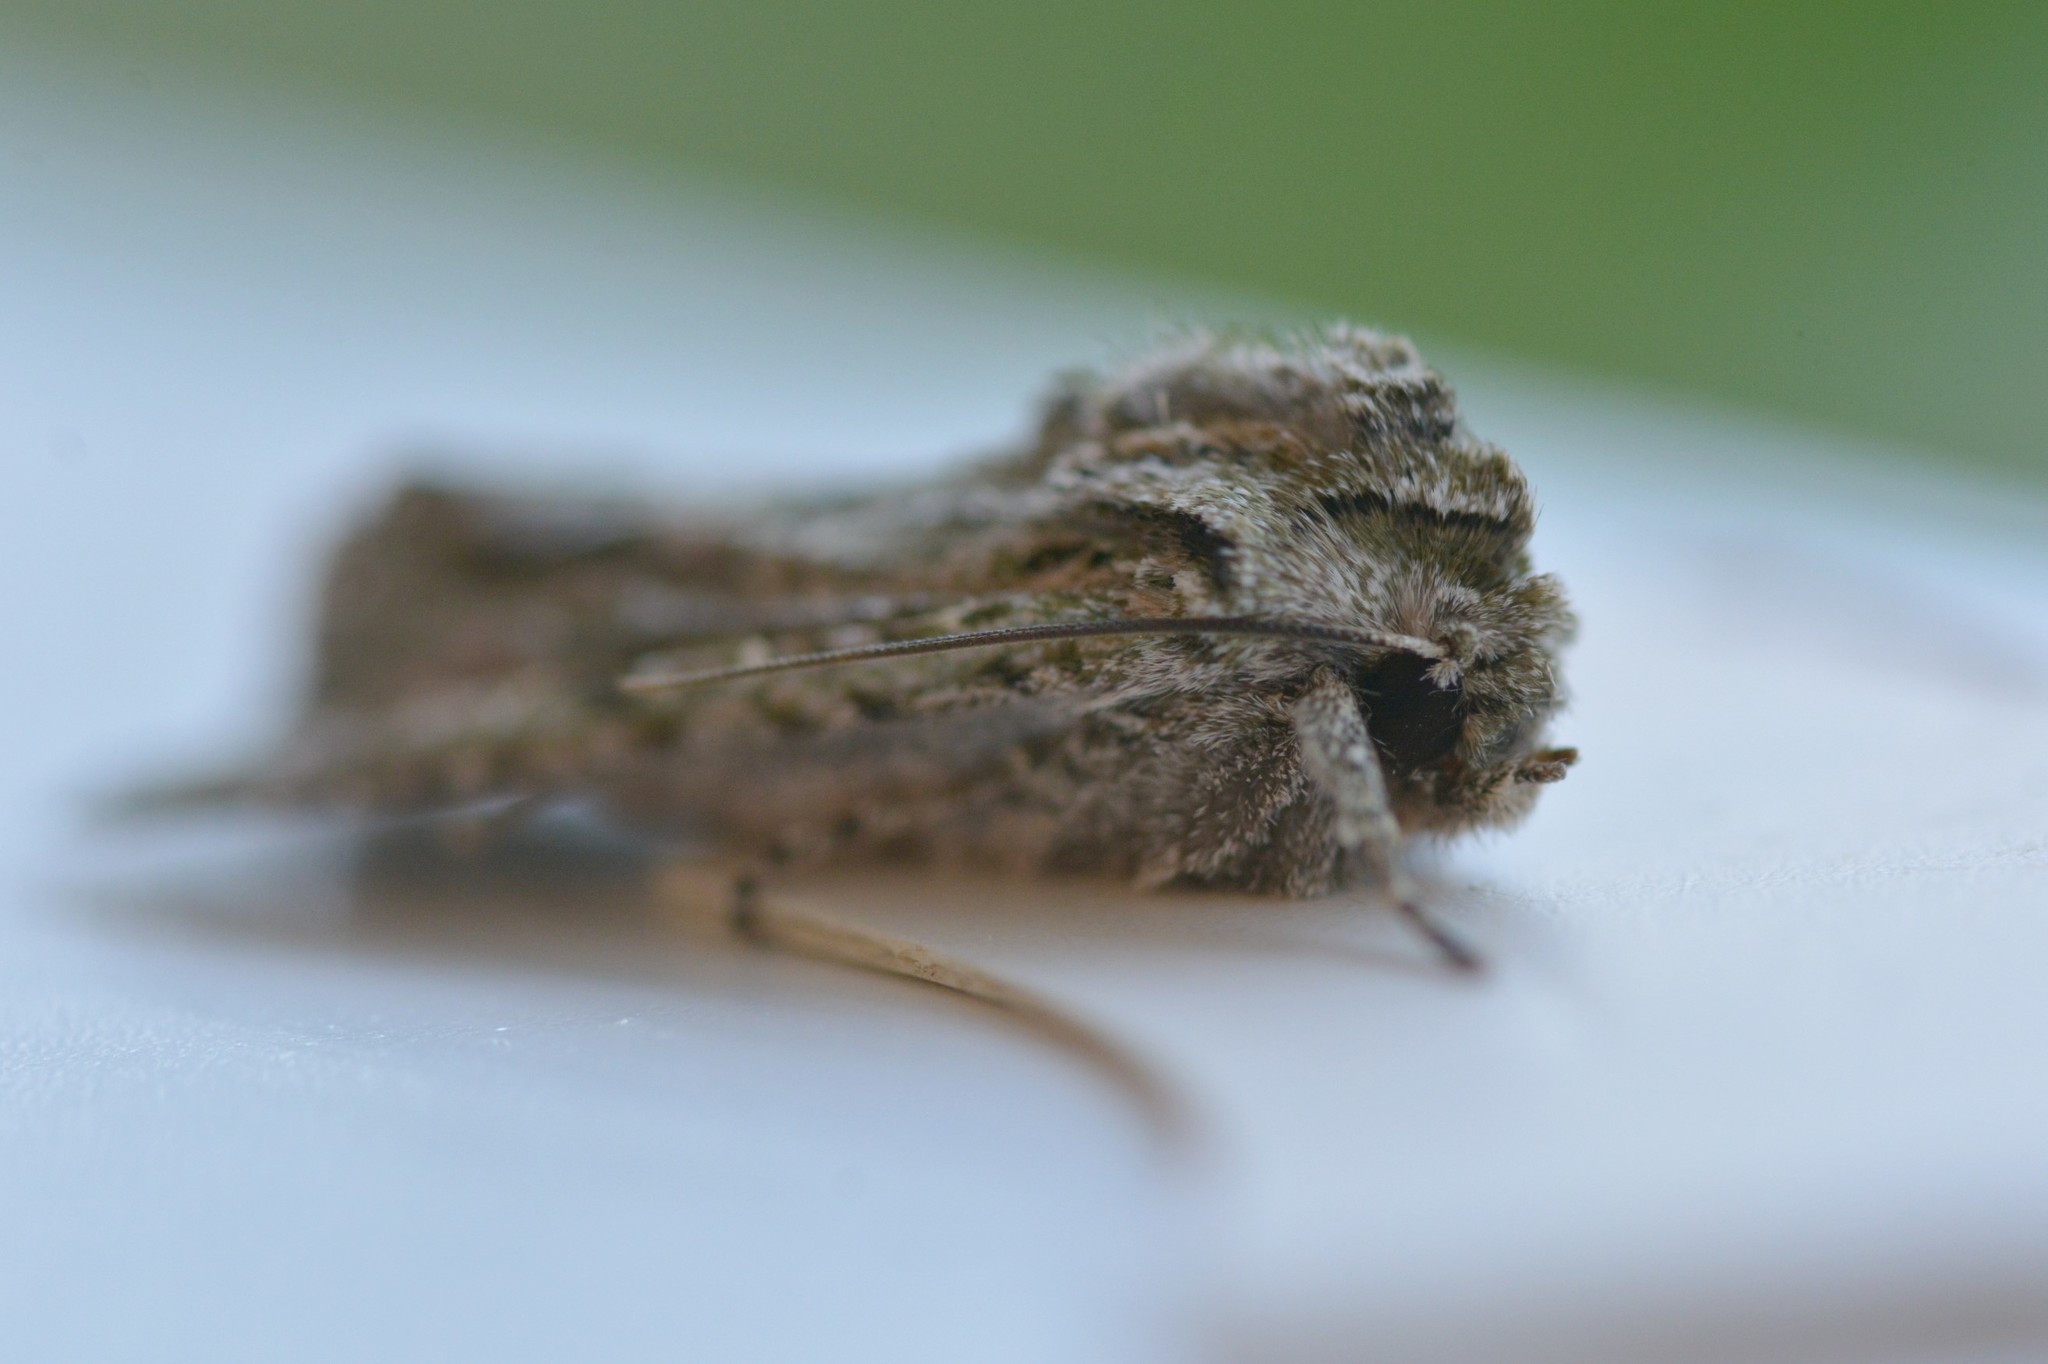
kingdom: Animalia
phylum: Arthropoda
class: Insecta
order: Lepidoptera
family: Noctuidae
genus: Ichneutica
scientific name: Ichneutica mutans
